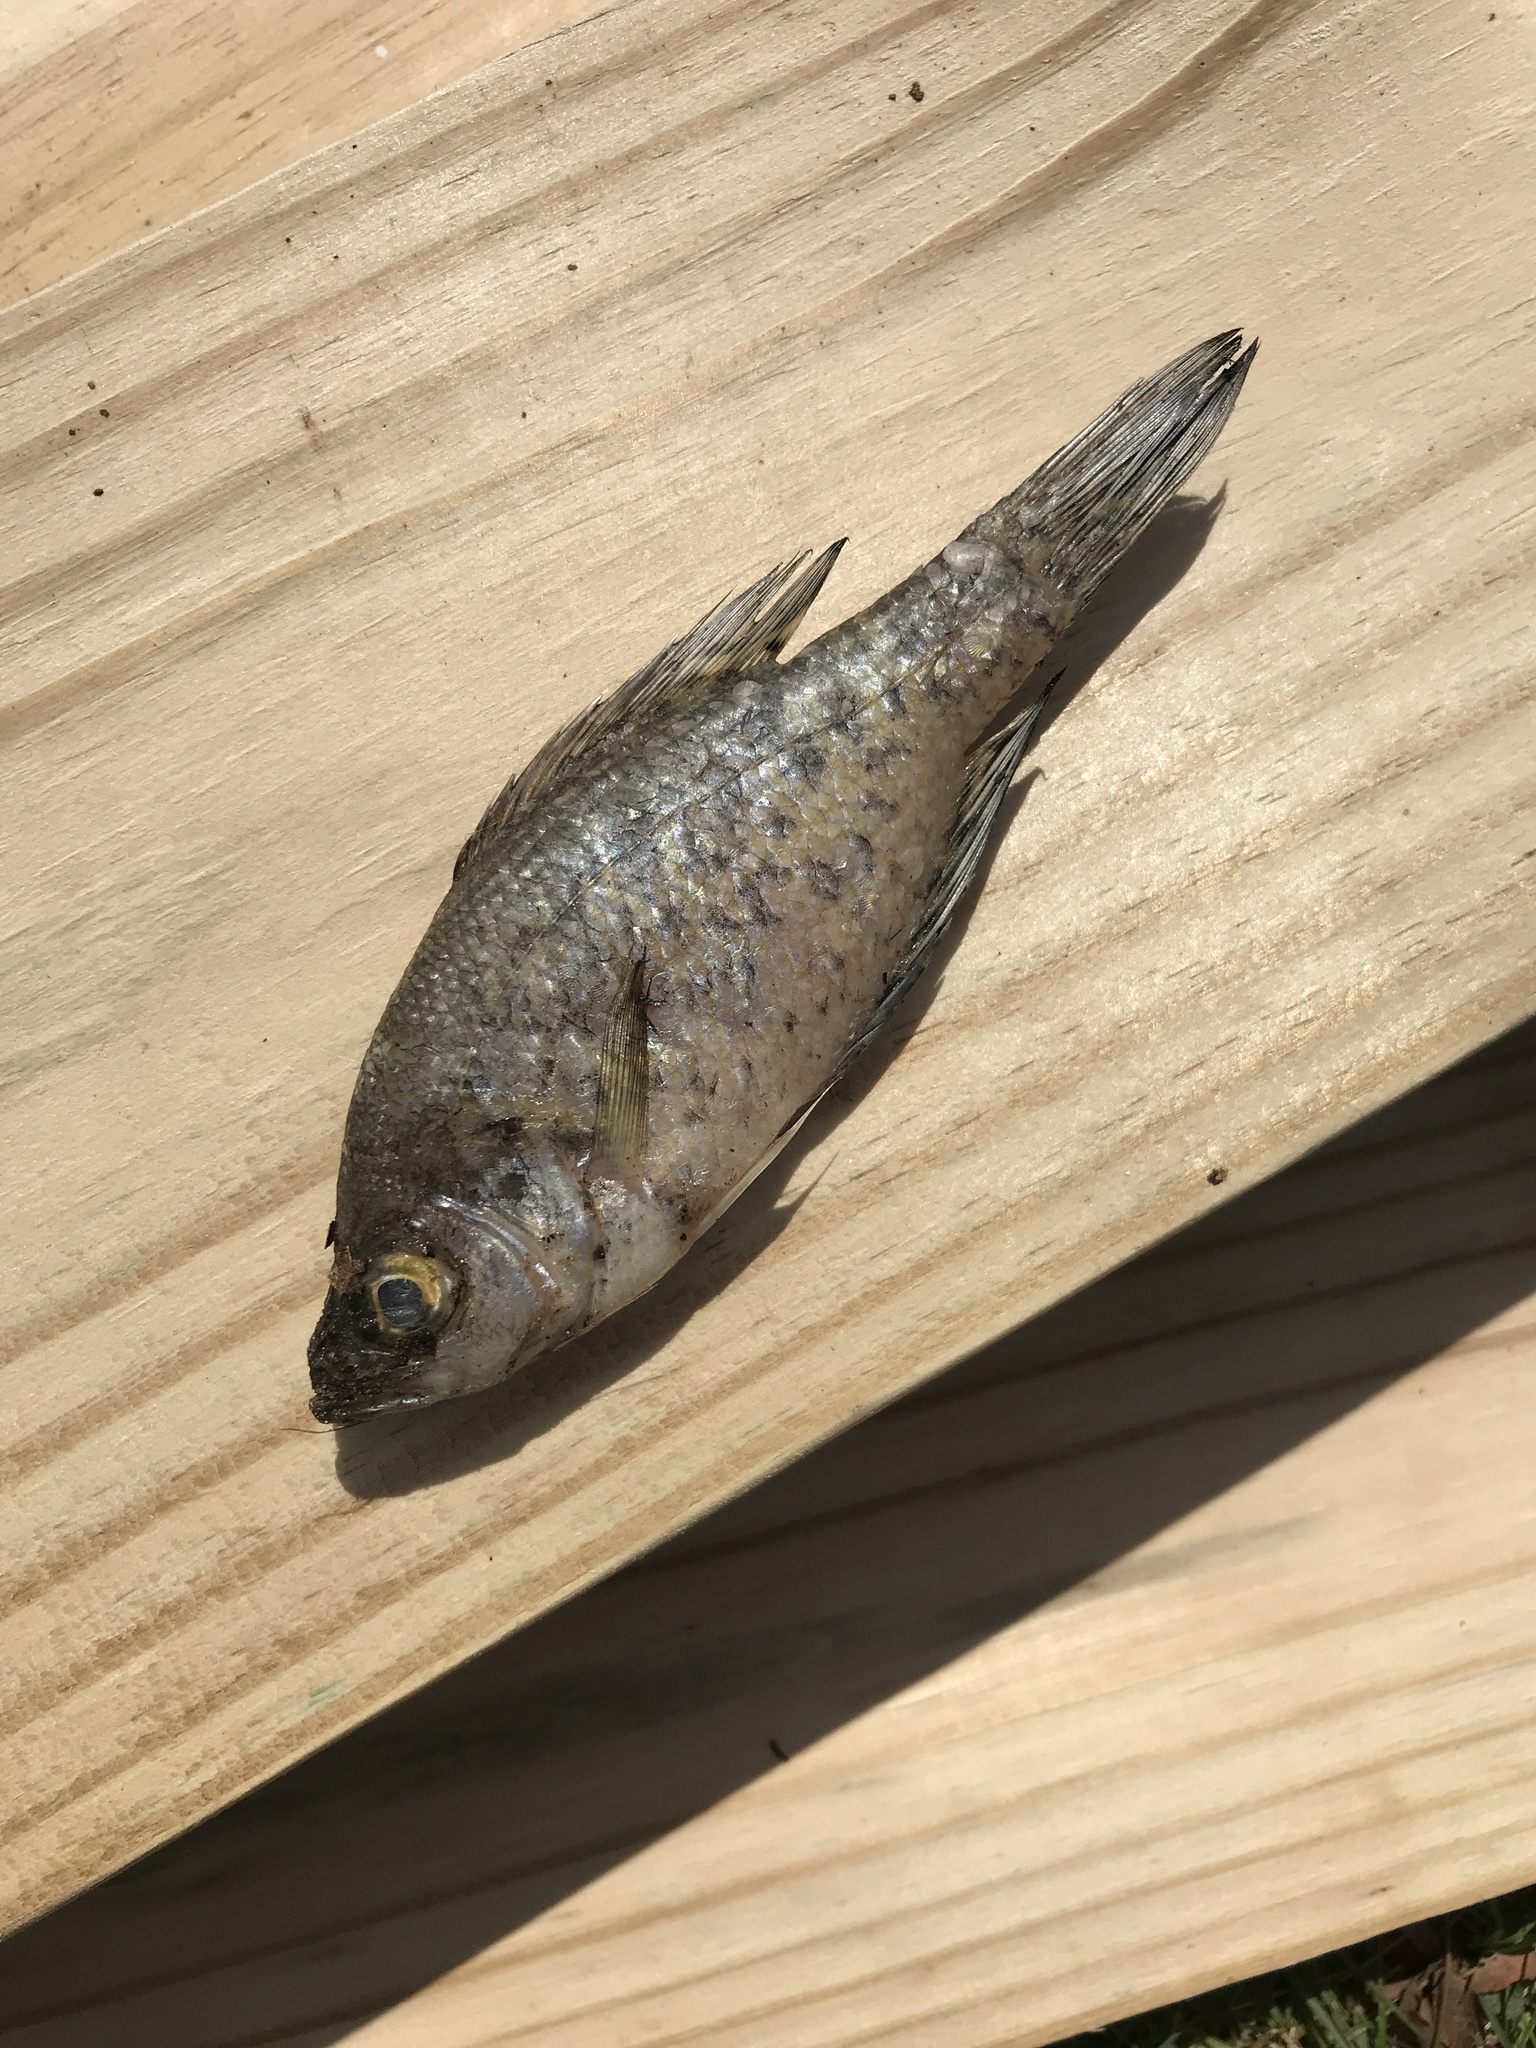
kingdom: Animalia
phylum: Chordata
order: Perciformes
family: Centrarchidae
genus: Pomoxis
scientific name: Pomoxis nigromaculatus
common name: Black crappie
